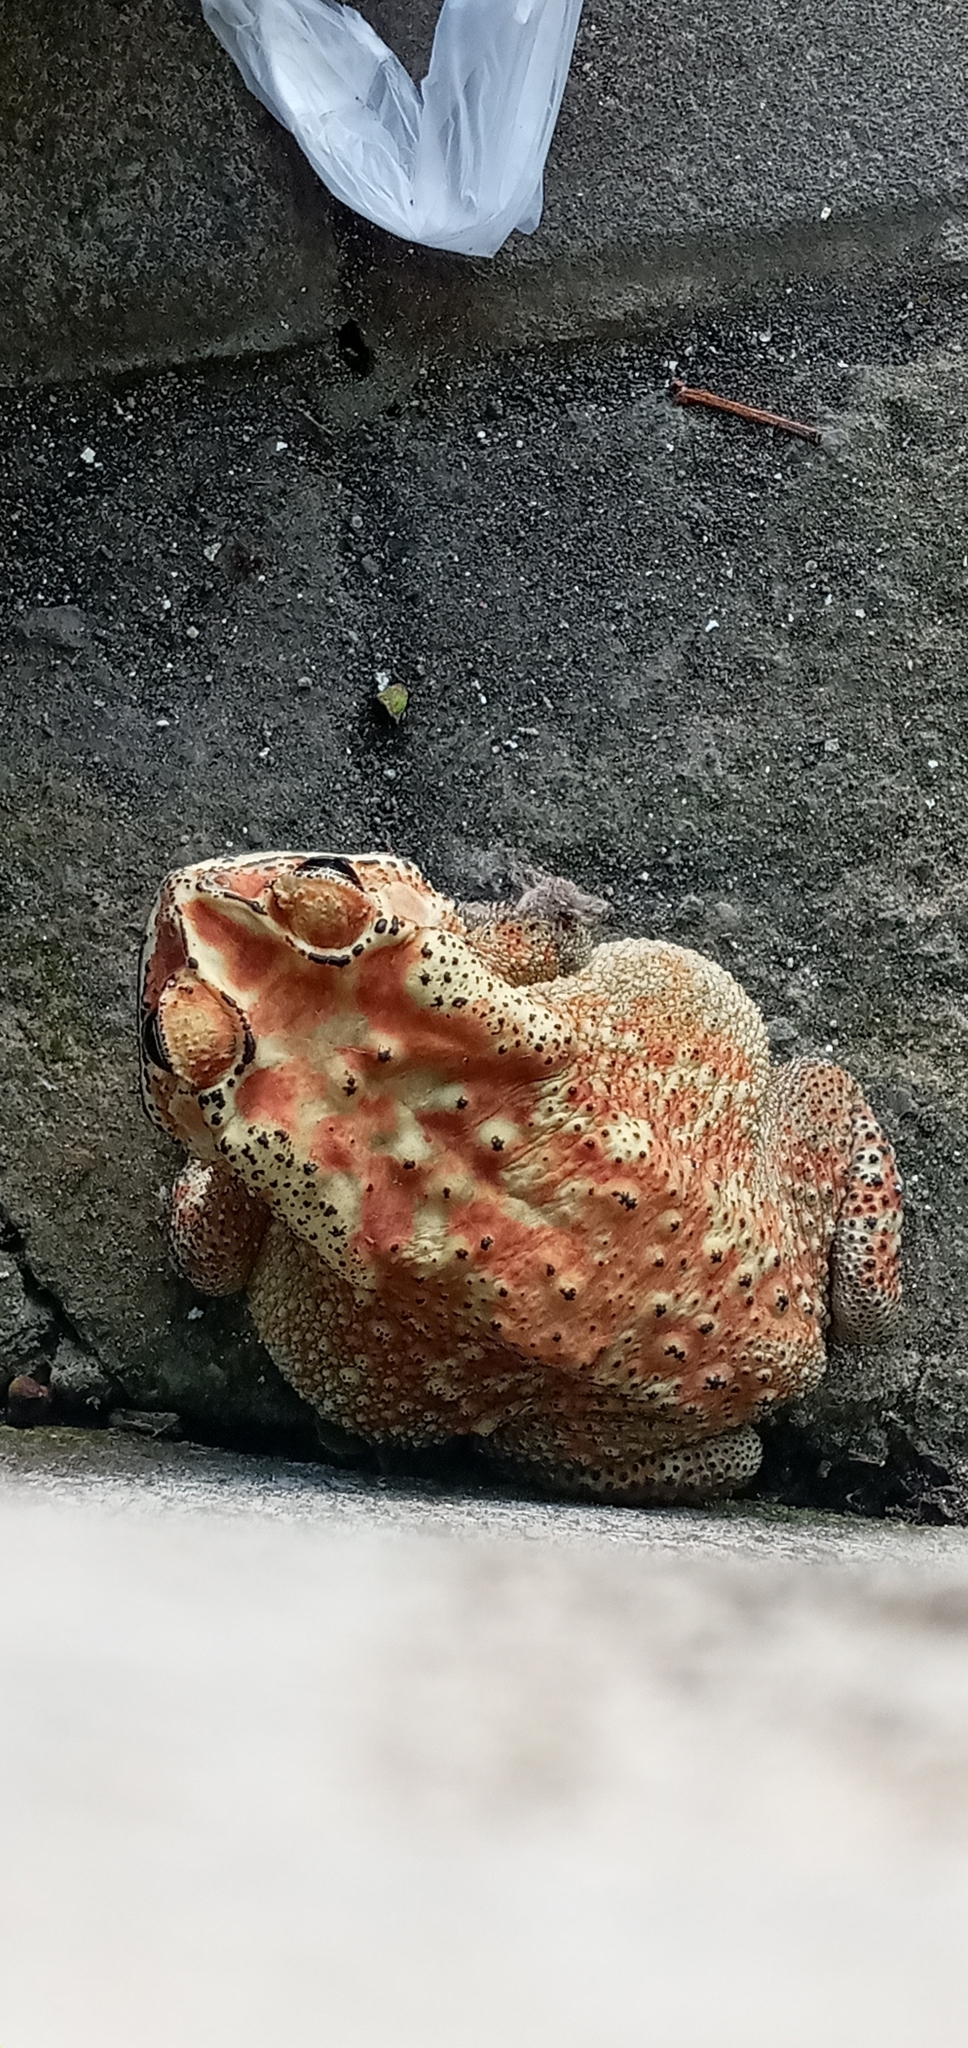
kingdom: Animalia
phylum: Chordata
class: Amphibia
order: Anura
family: Bufonidae
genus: Duttaphrynus
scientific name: Duttaphrynus melanostictus
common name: Common sunda toad
